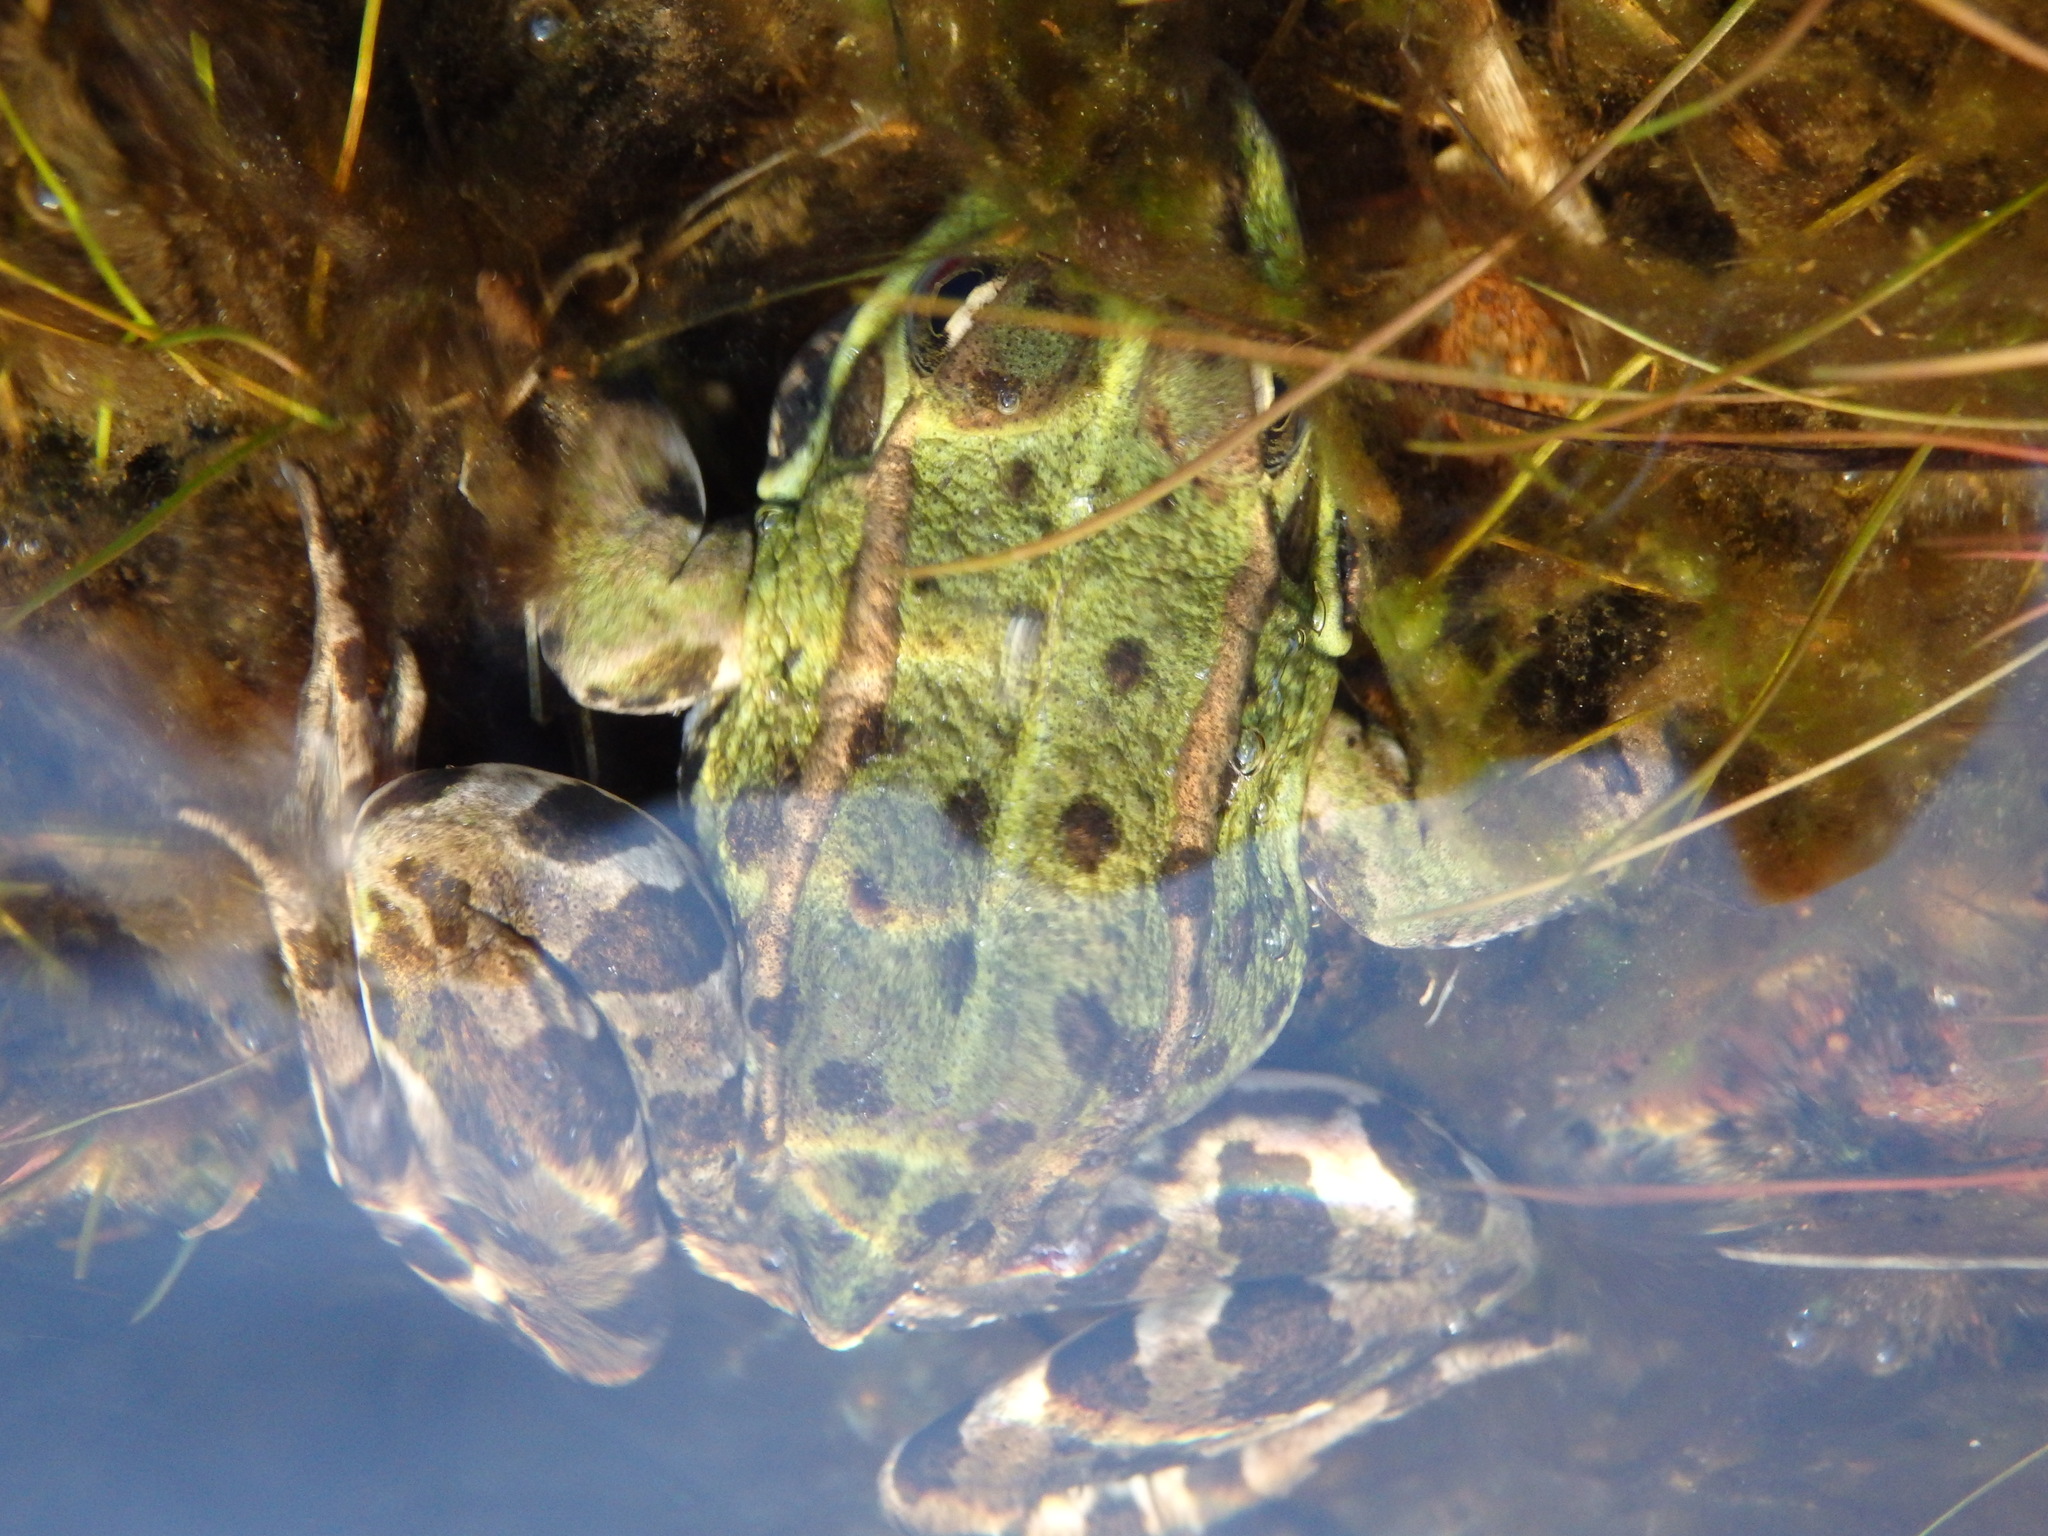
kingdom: Animalia
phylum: Chordata
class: Amphibia
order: Anura
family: Ranidae
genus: Pelophylax
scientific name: Pelophylax perezi
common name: Perez's frog
